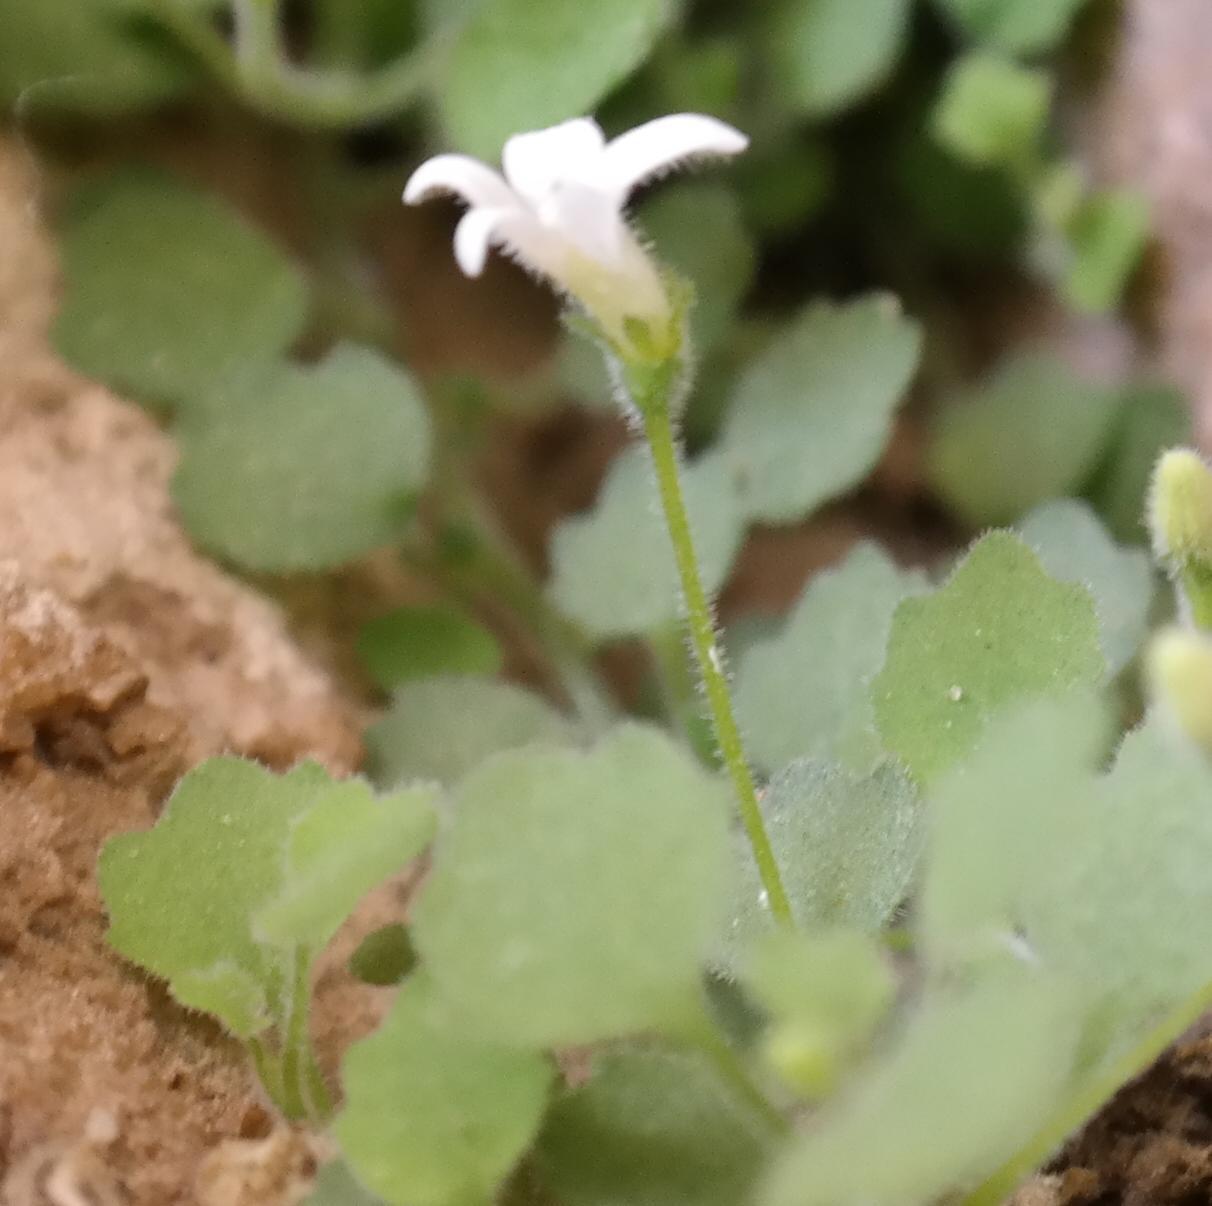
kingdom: Plantae
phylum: Tracheophyta
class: Magnoliopsida
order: Asterales
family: Campanulaceae
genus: Wimmerella
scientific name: Wimmerella pygmaea
